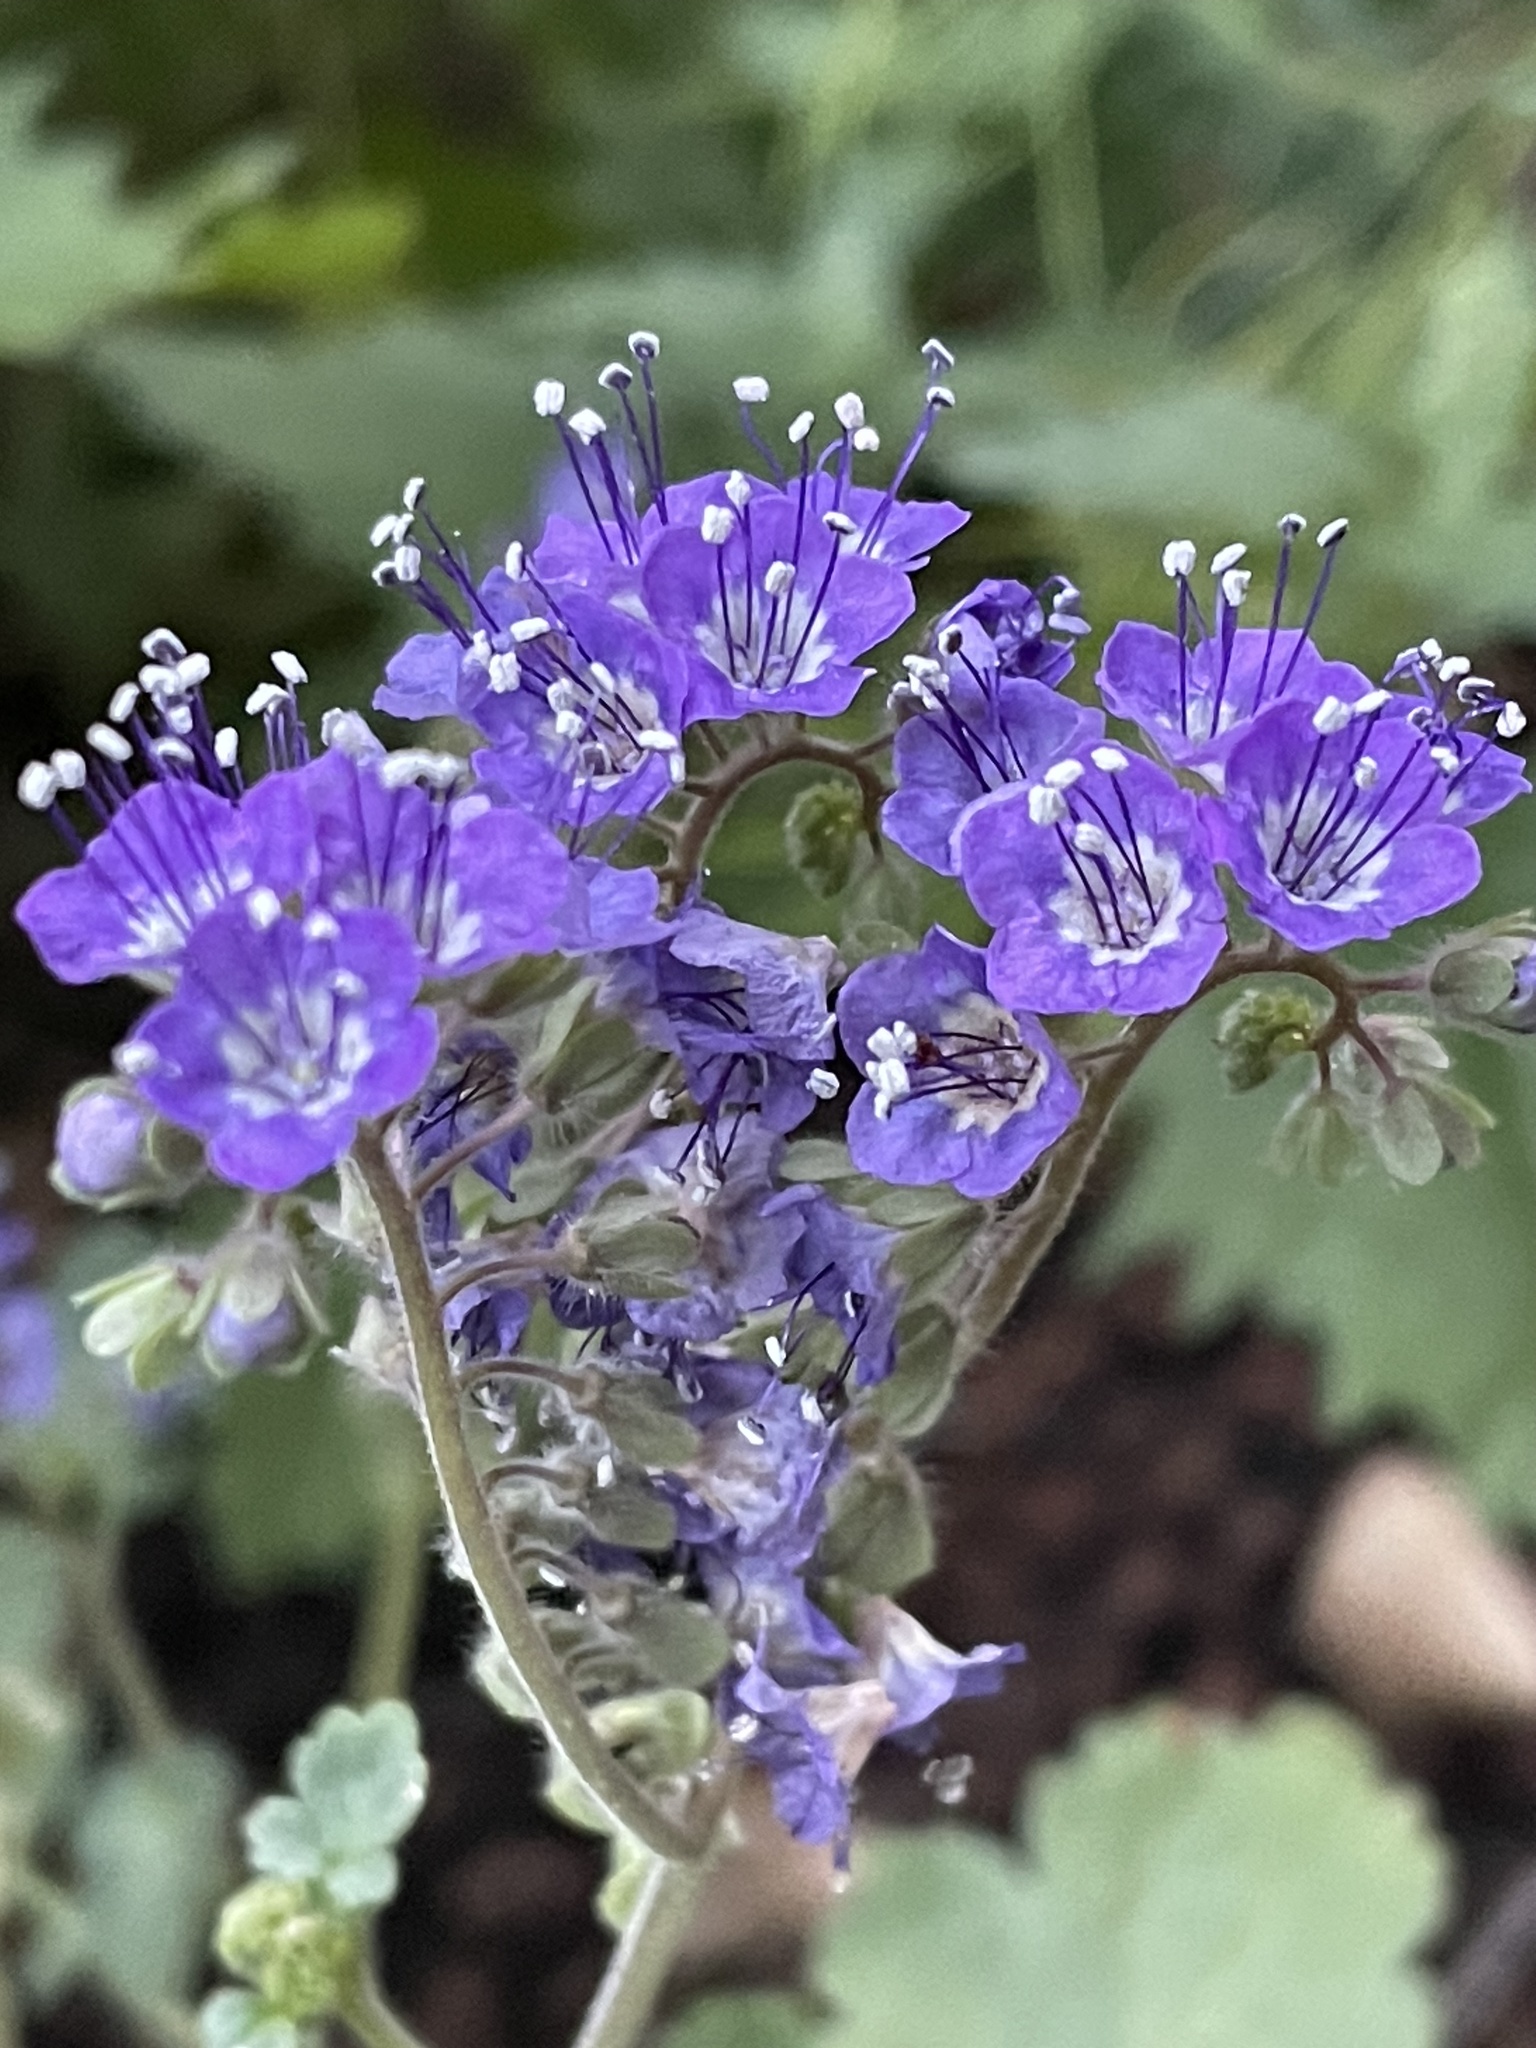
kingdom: Plantae
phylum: Tracheophyta
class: Magnoliopsida
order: Boraginales
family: Hydrophyllaceae
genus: Phacelia
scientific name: Phacelia scariosa
